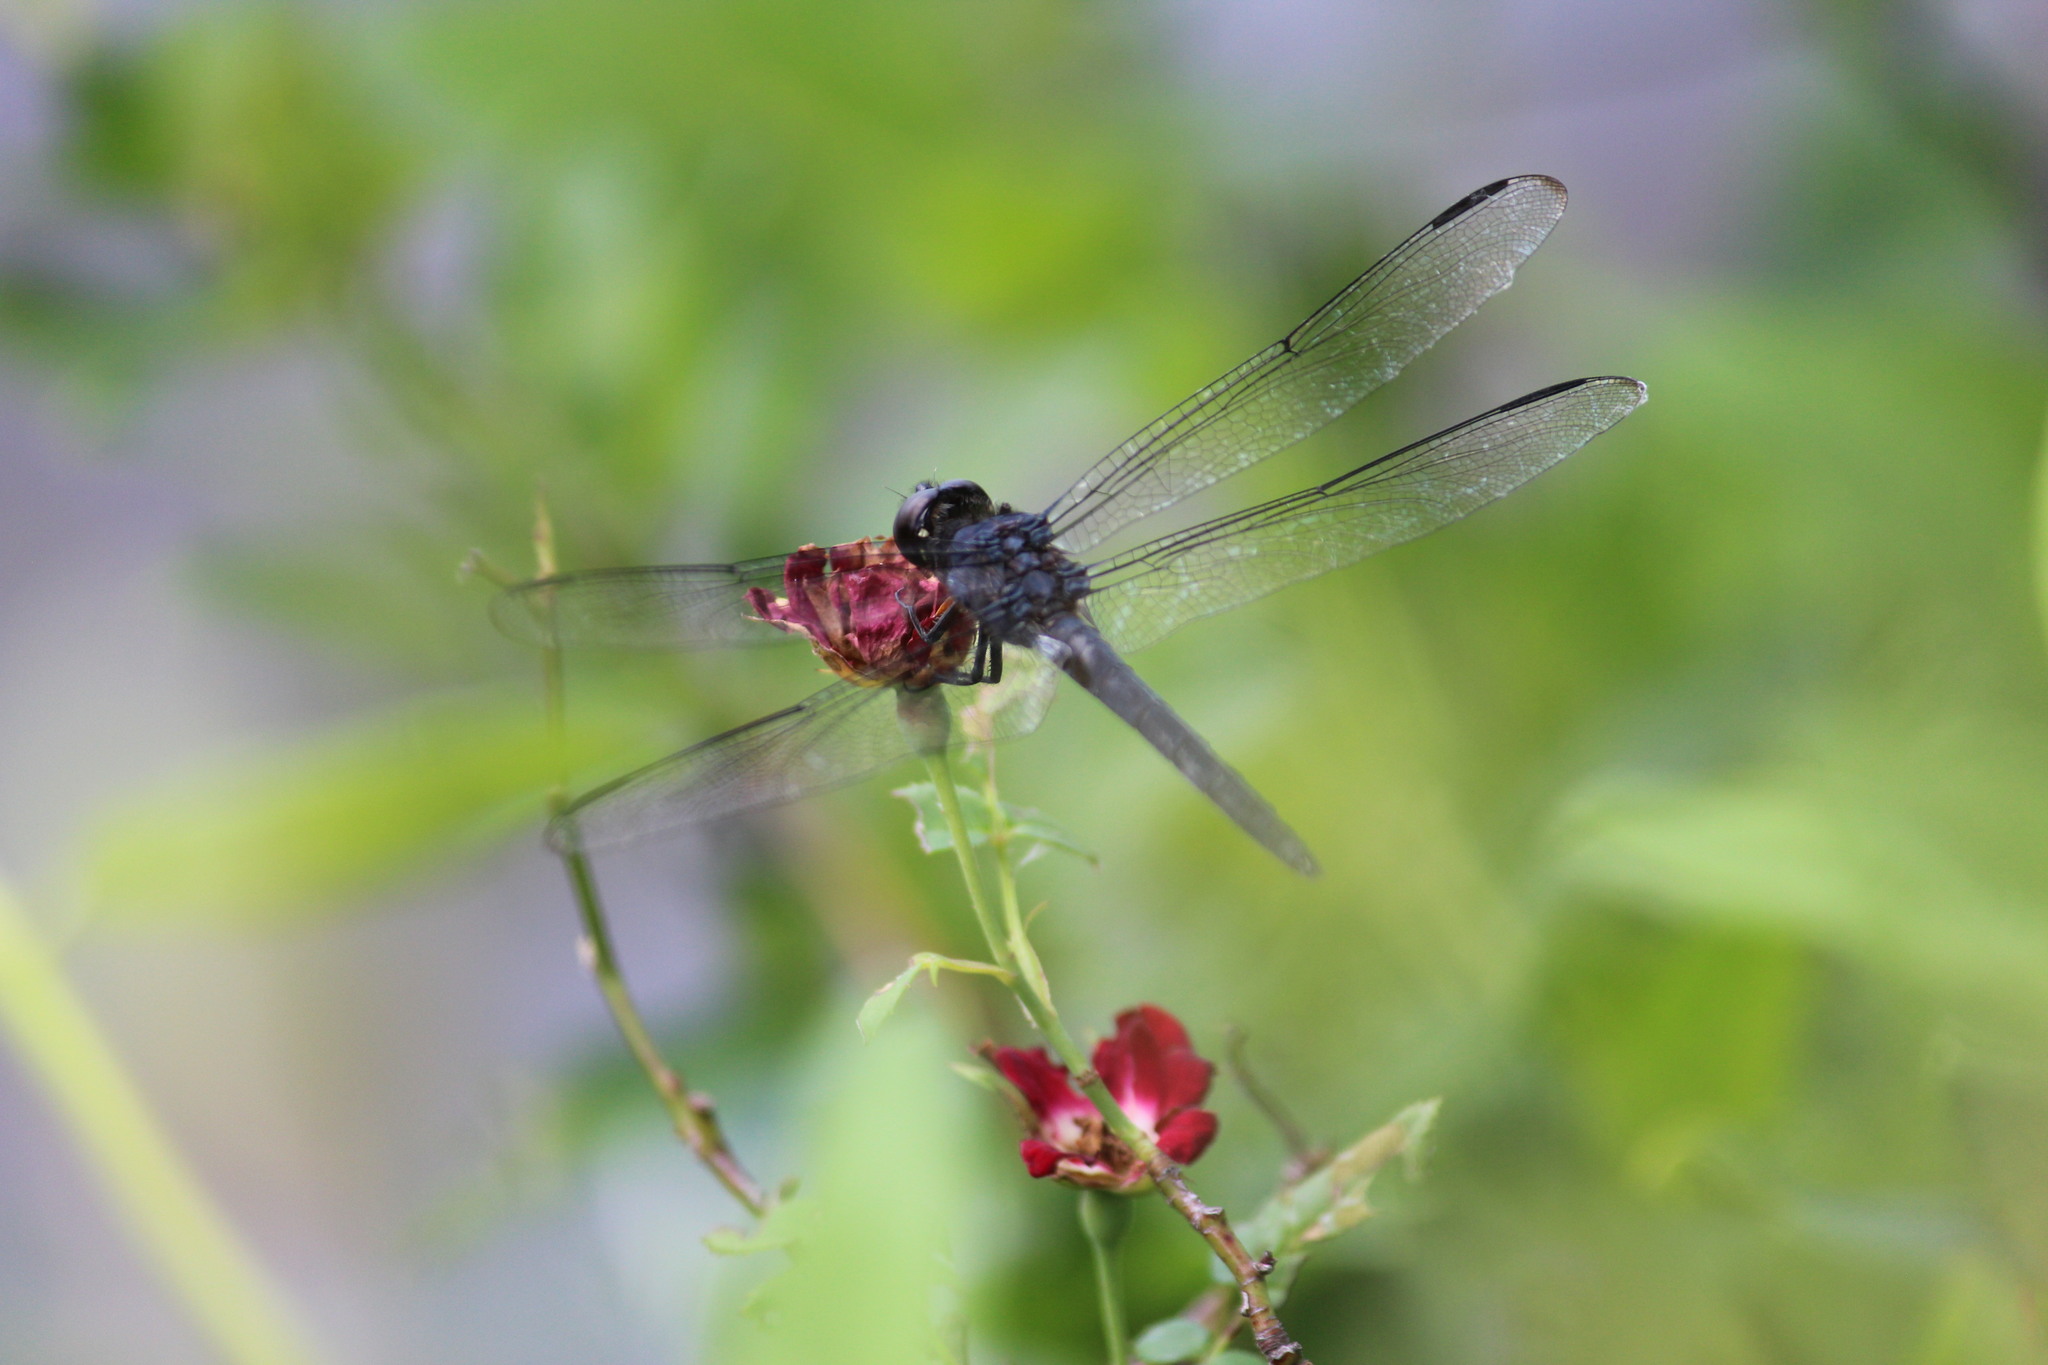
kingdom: Animalia
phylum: Arthropoda
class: Insecta
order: Odonata
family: Libellulidae
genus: Libellula
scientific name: Libellula incesta
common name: Slaty skimmer
